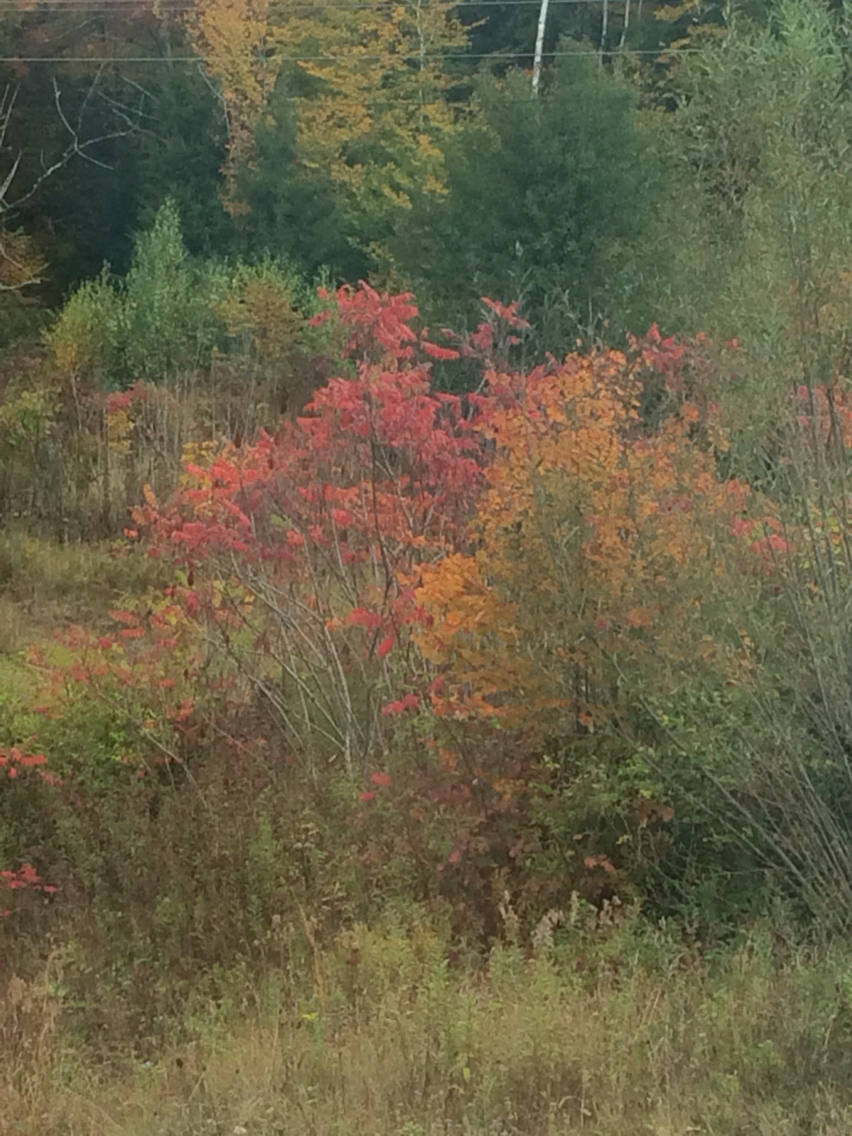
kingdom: Plantae
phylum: Tracheophyta
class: Magnoliopsida
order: Sapindales
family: Anacardiaceae
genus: Rhus
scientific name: Rhus typhina
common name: Staghorn sumac
